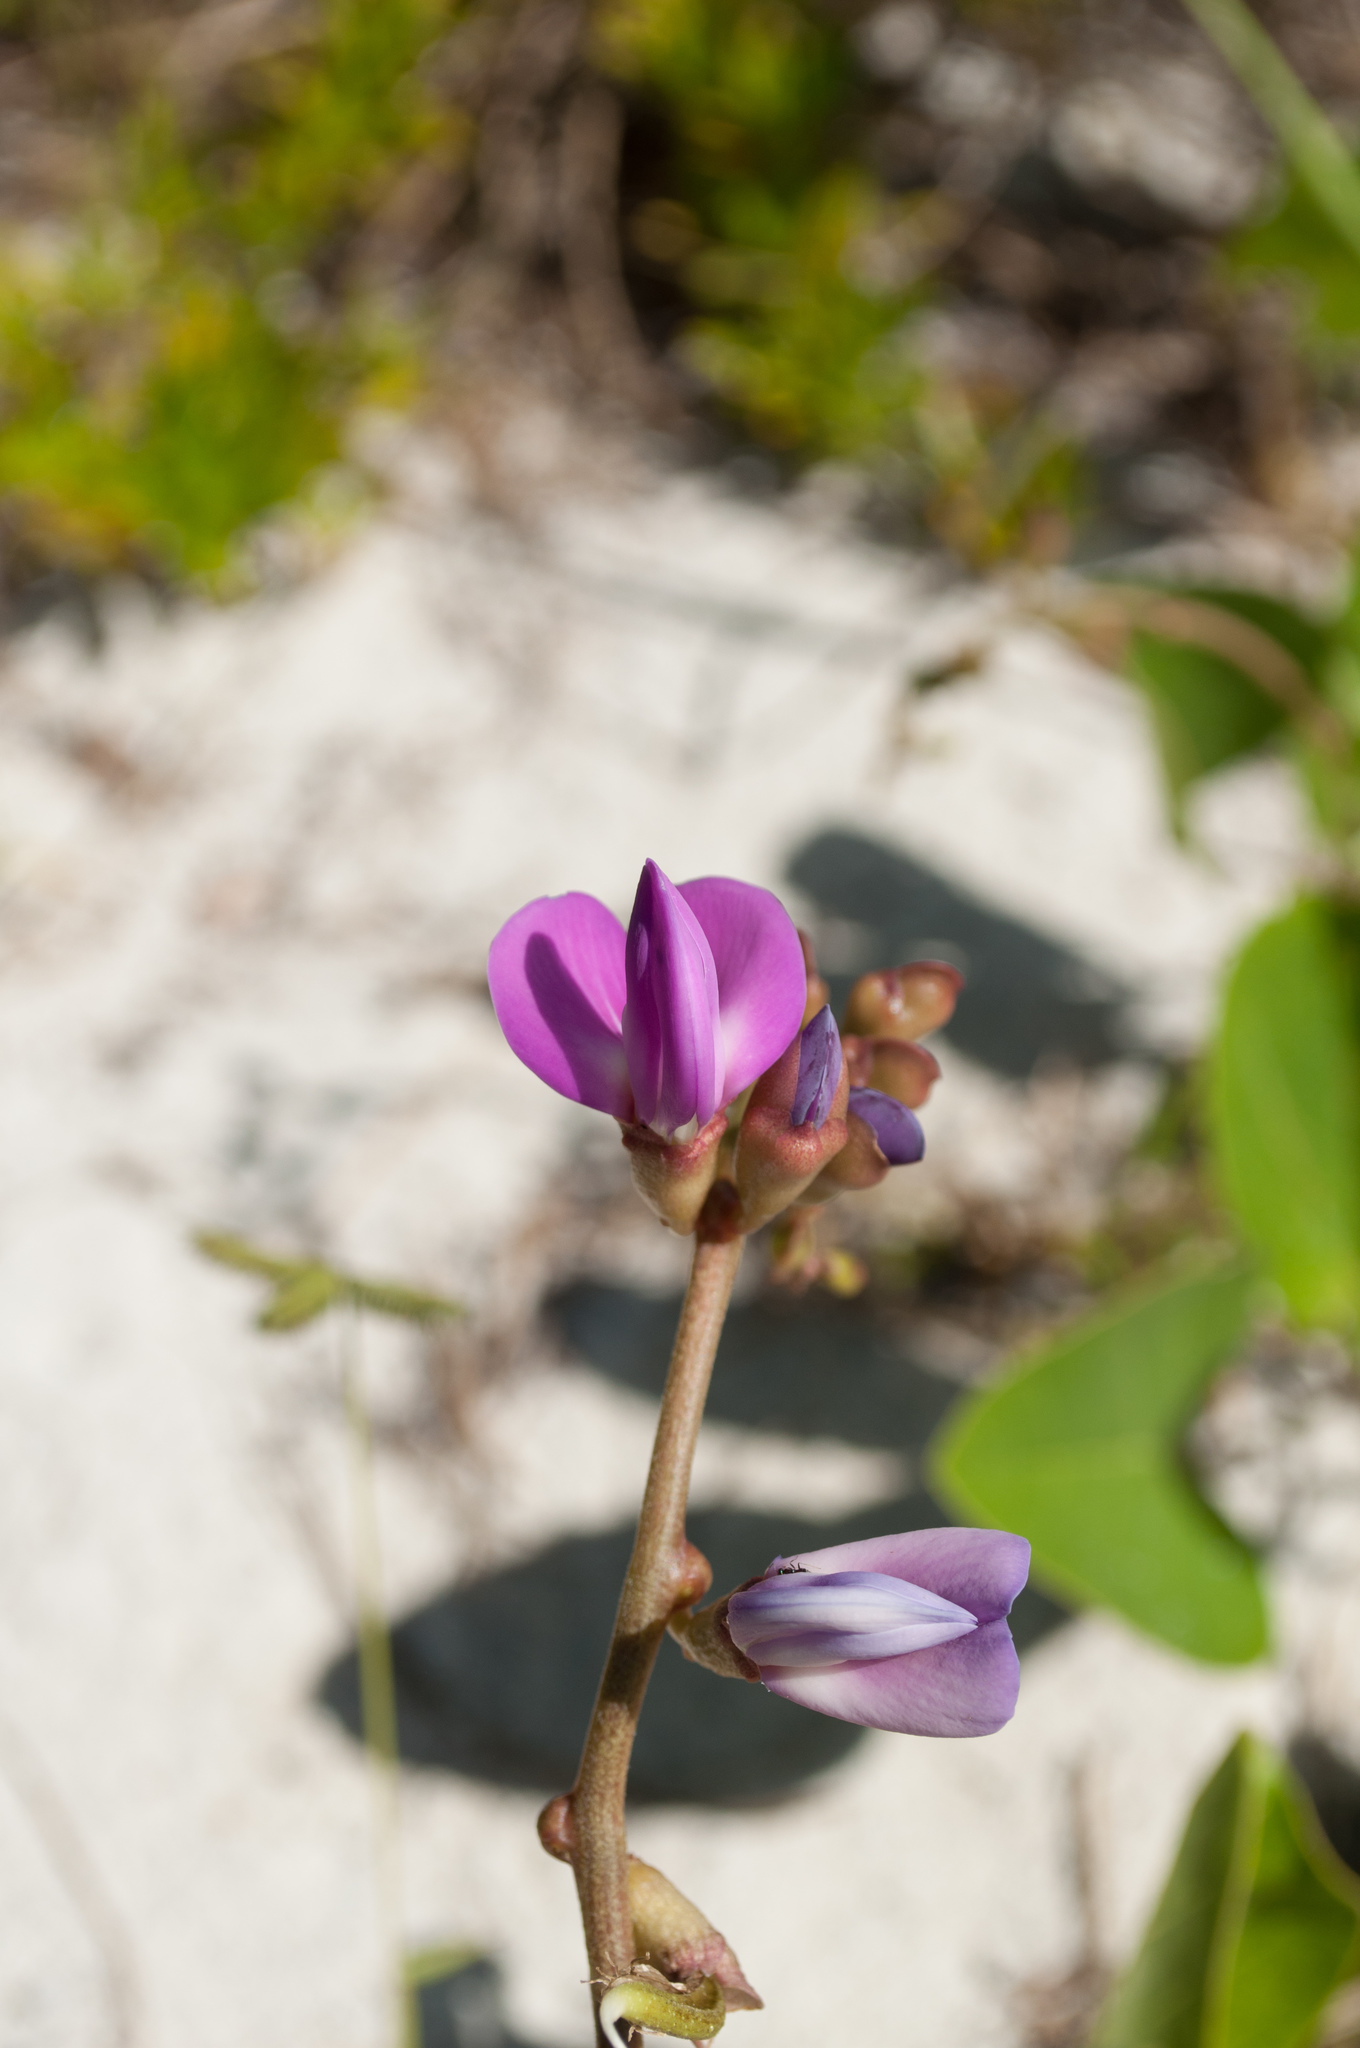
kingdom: Plantae
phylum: Tracheophyta
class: Magnoliopsida
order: Fabales
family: Fabaceae
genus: Canavalia
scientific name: Canavalia rosea
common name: Beach-bean
